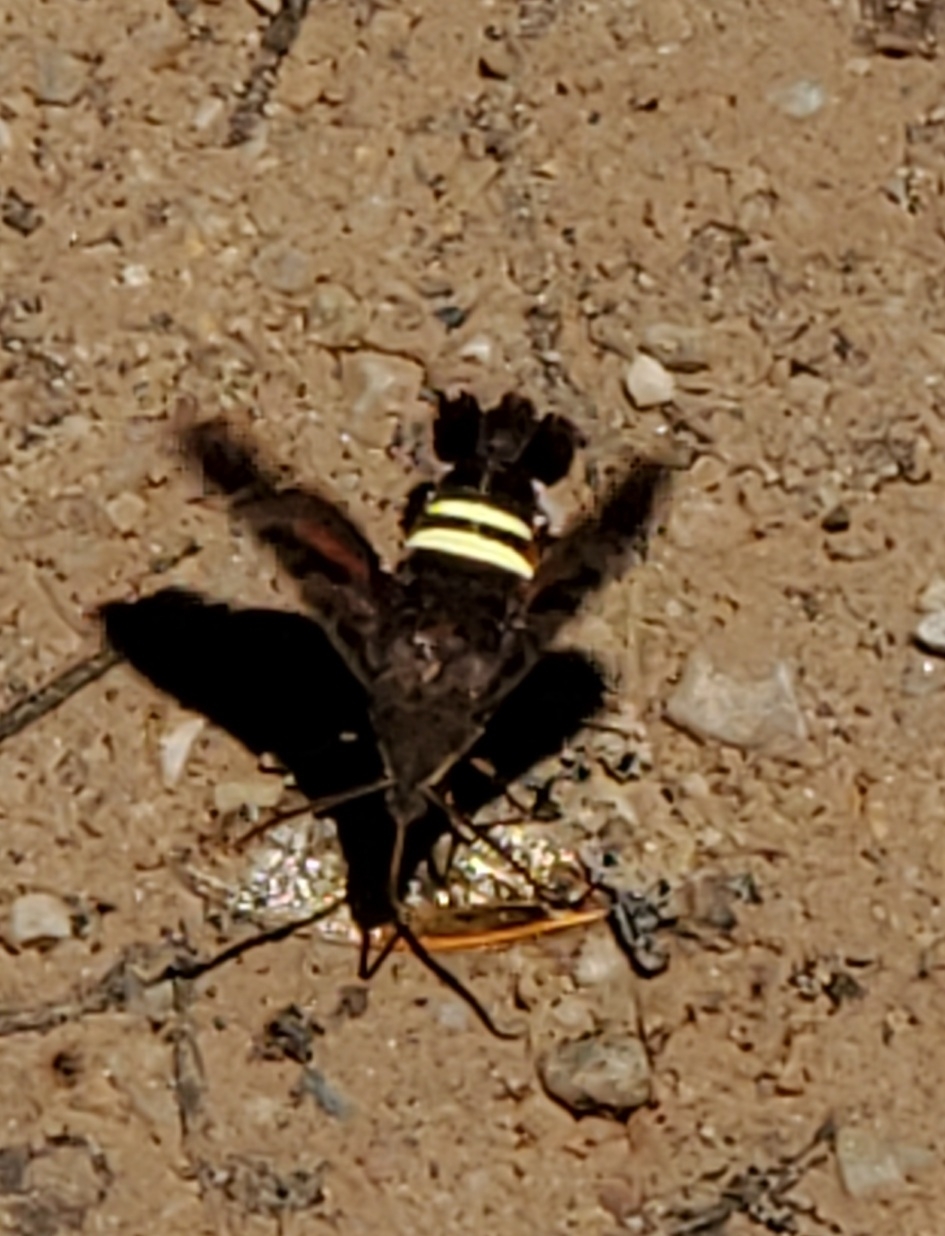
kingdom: Animalia
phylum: Arthropoda
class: Insecta
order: Lepidoptera
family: Sphingidae
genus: Amphion
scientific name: Amphion floridensis
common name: Nessus sphinx
